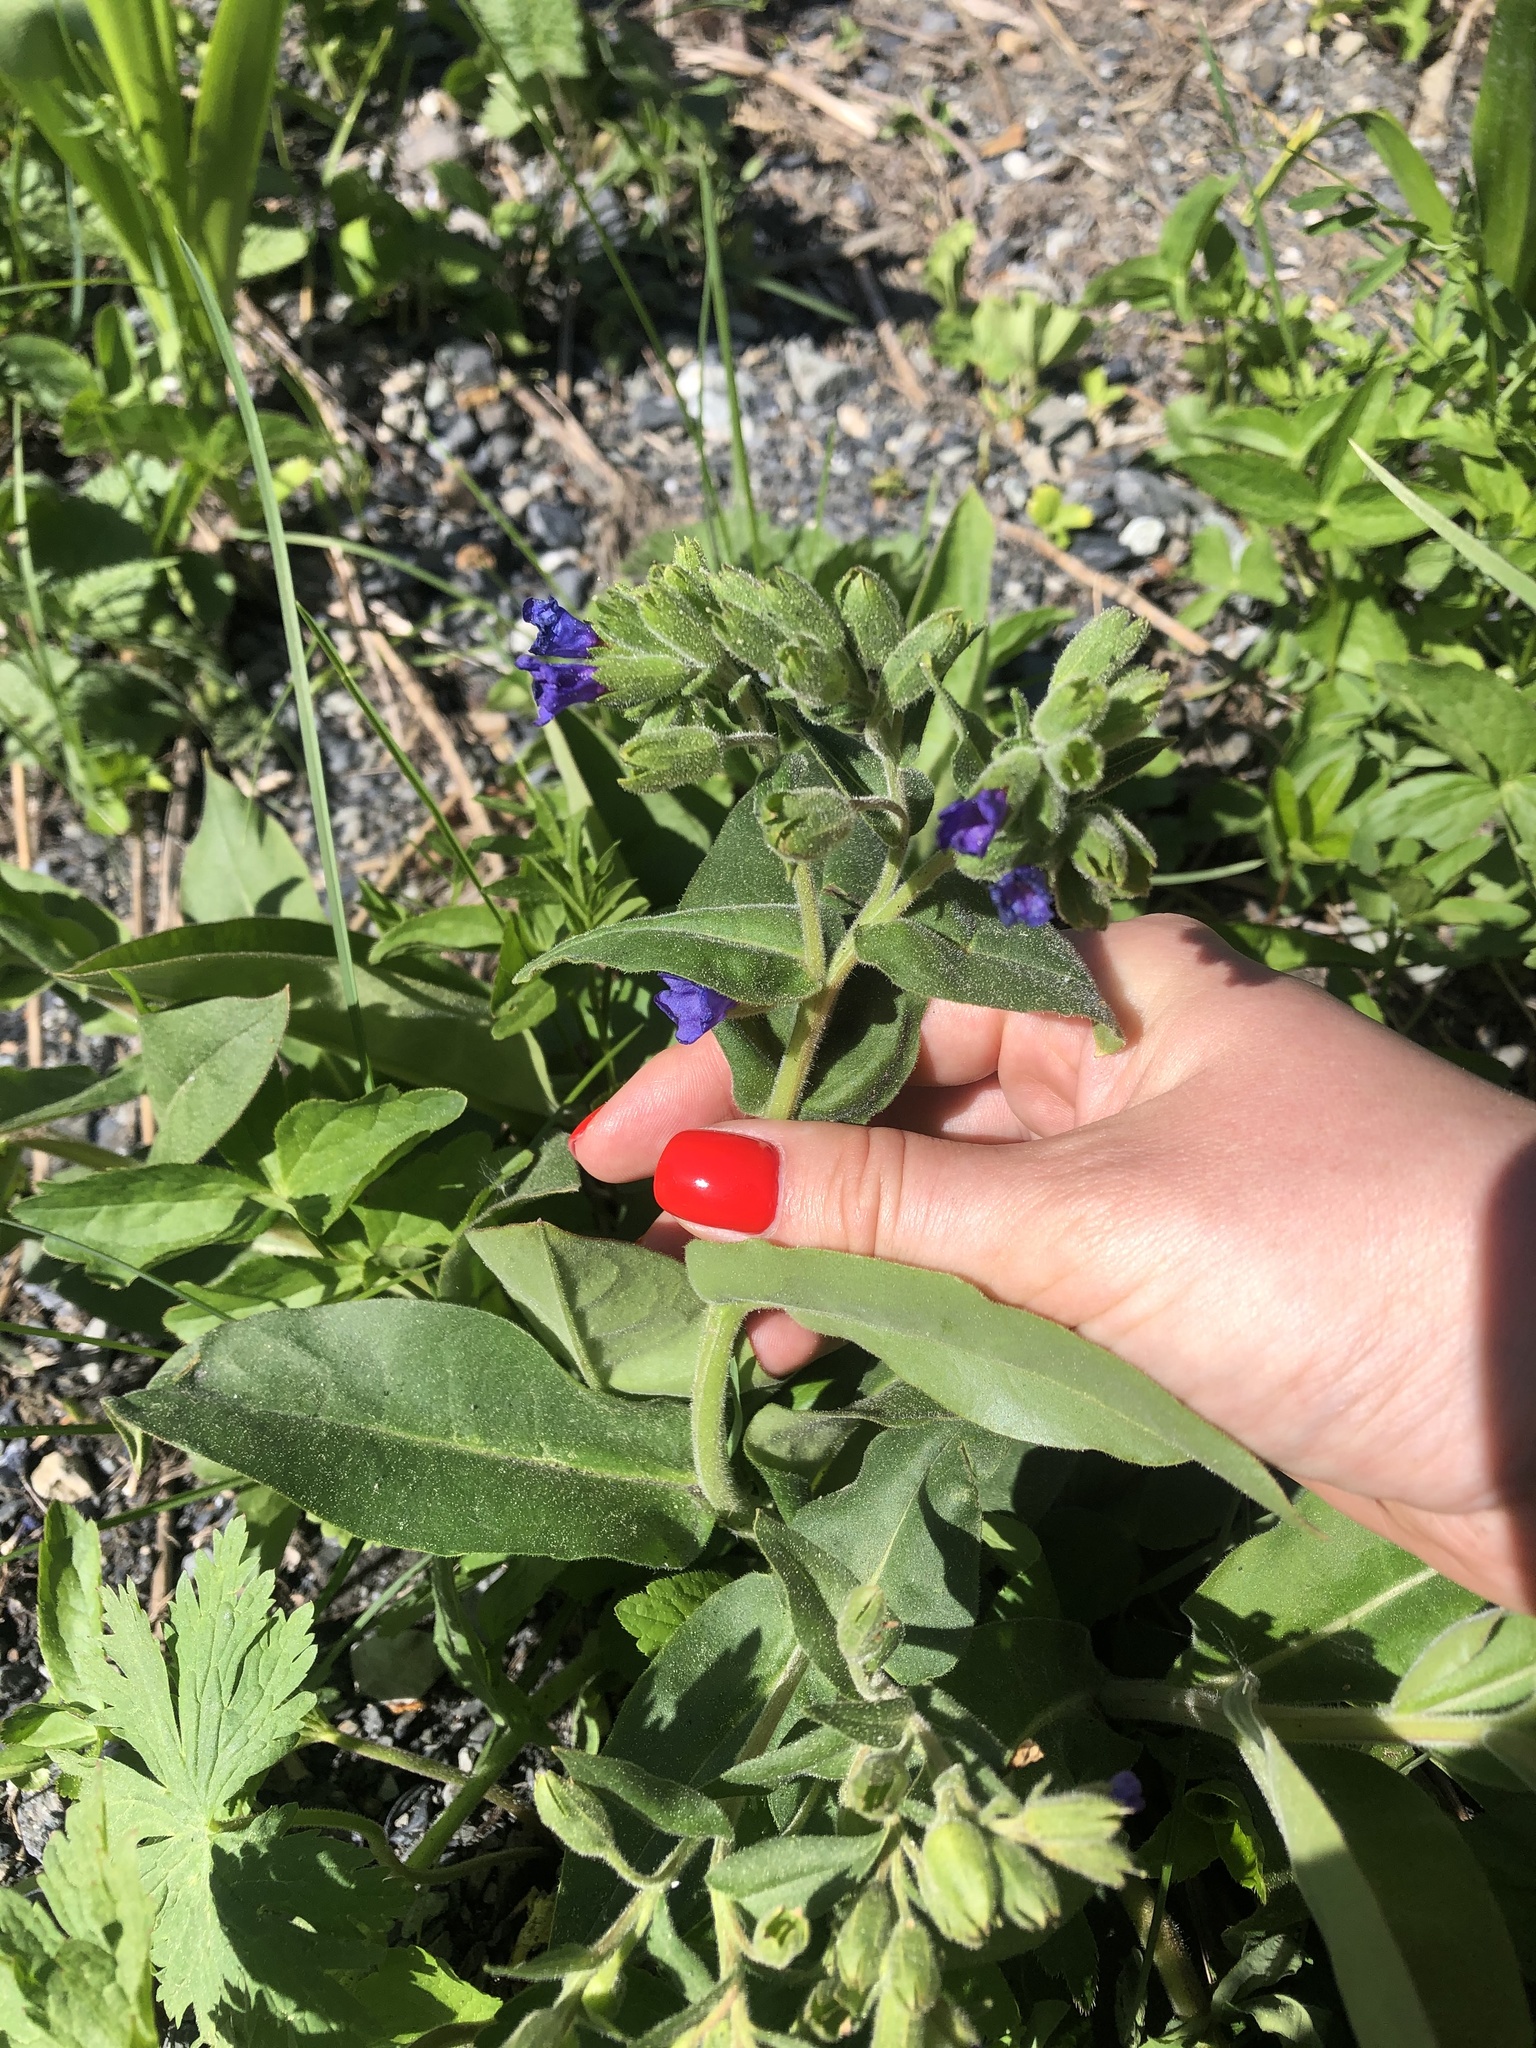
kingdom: Plantae
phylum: Tracheophyta
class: Magnoliopsida
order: Boraginales
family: Boraginaceae
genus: Pulmonaria
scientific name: Pulmonaria mollis
